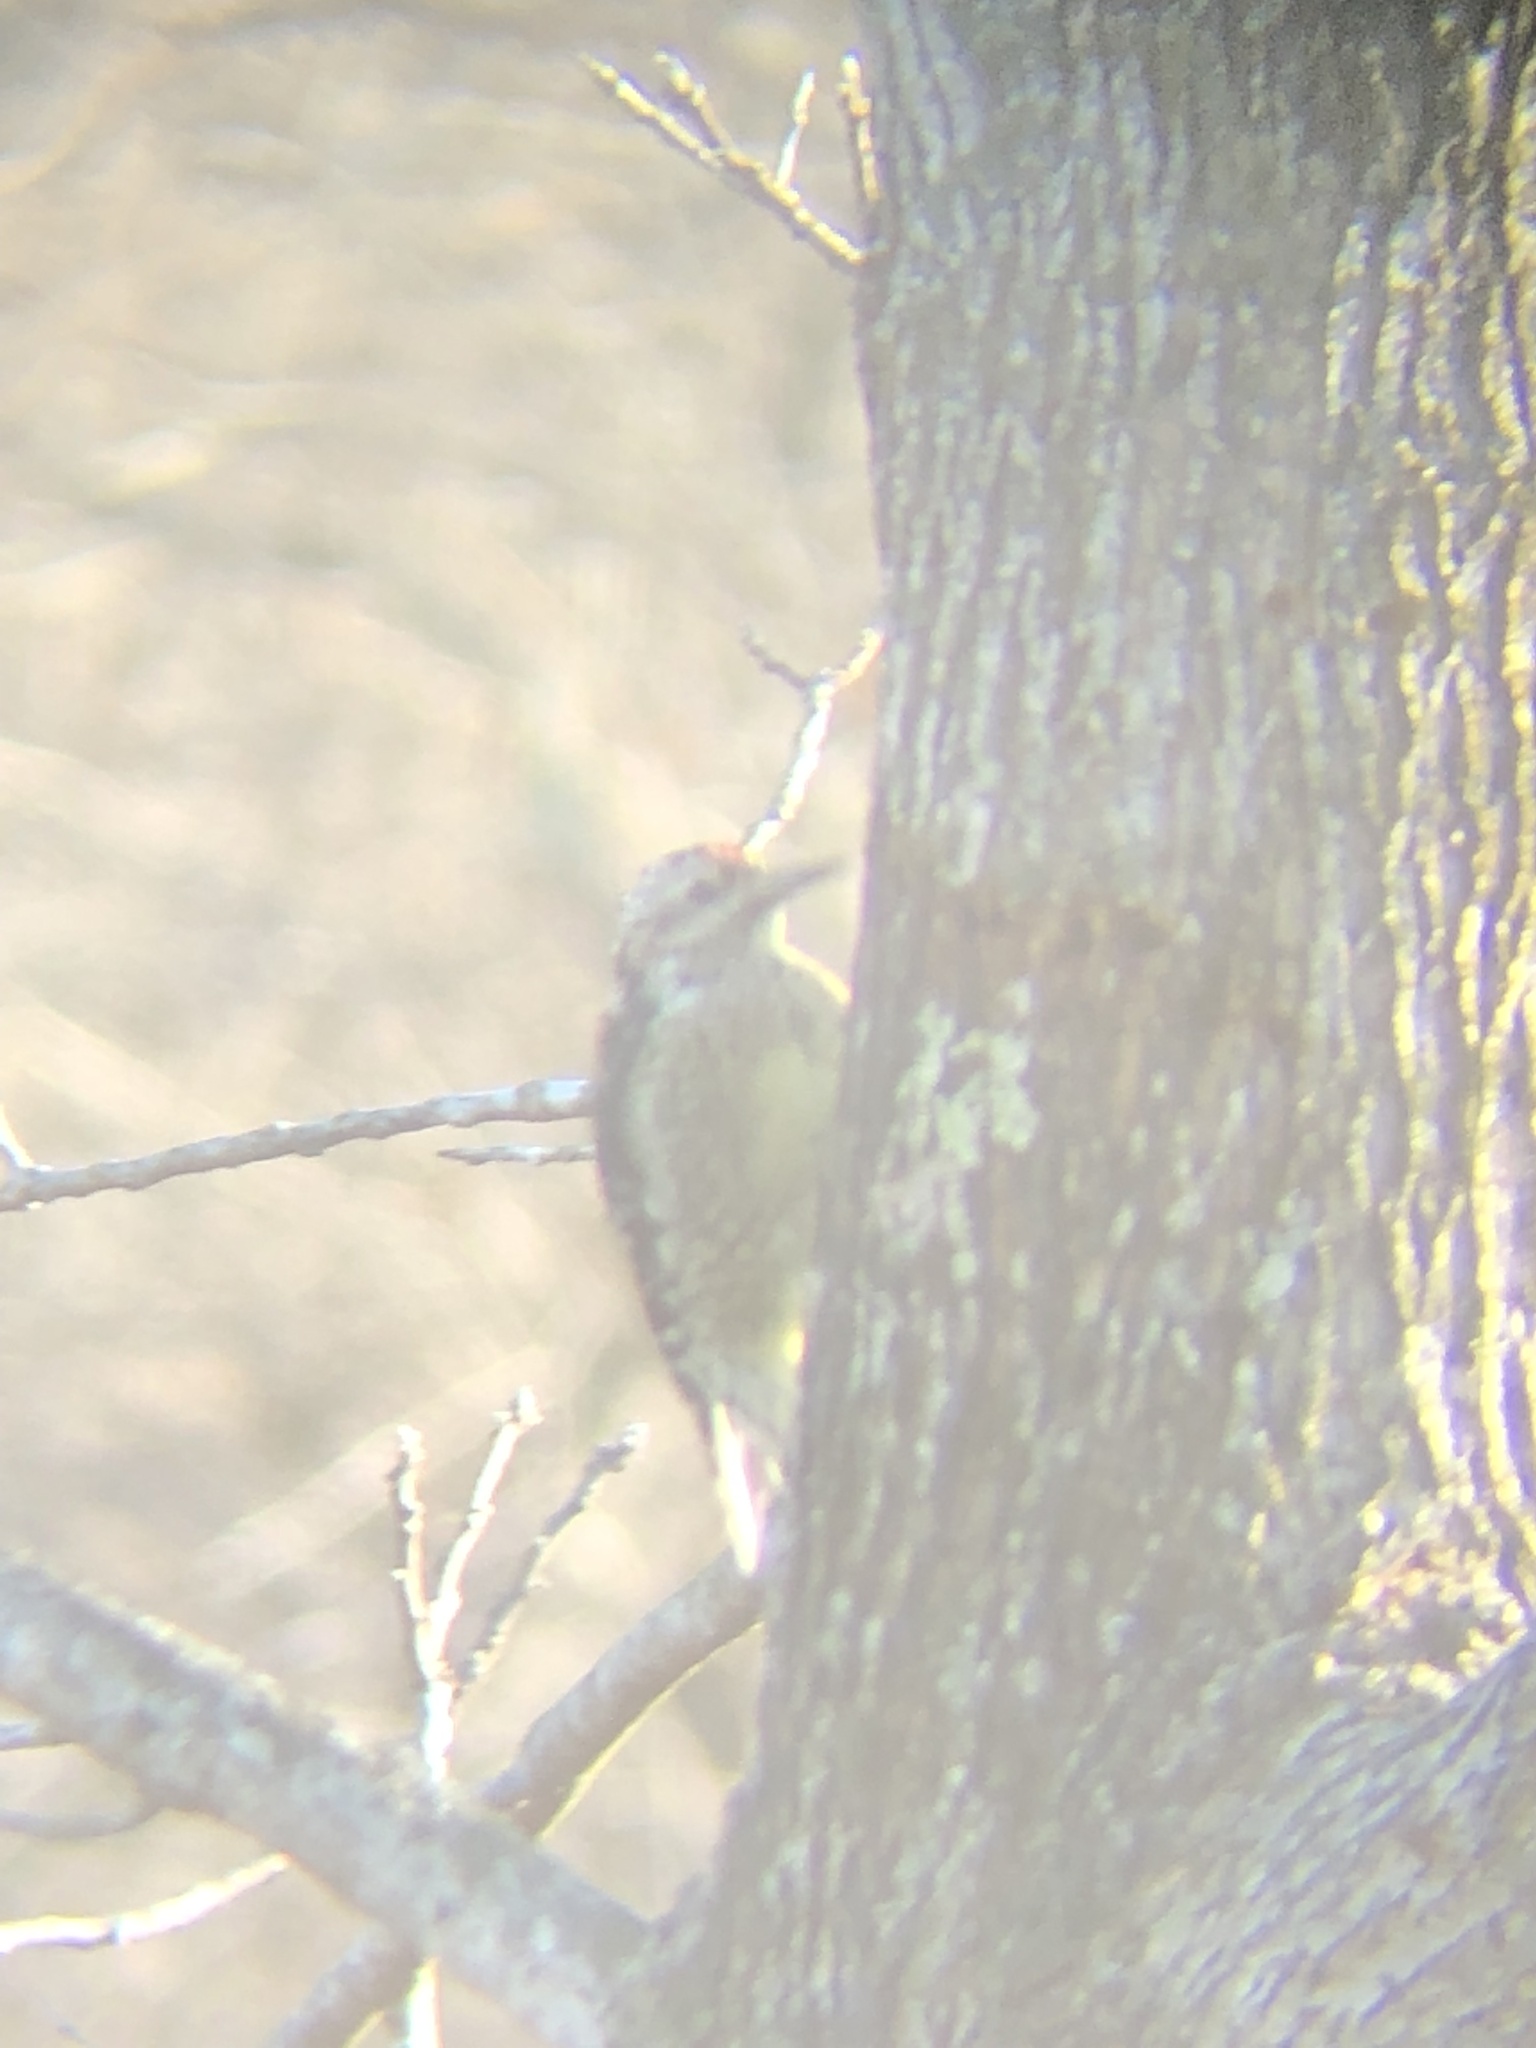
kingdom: Animalia
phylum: Chordata
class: Aves
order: Piciformes
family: Picidae
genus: Sphyrapicus
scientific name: Sphyrapicus varius
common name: Yellow-bellied sapsucker
